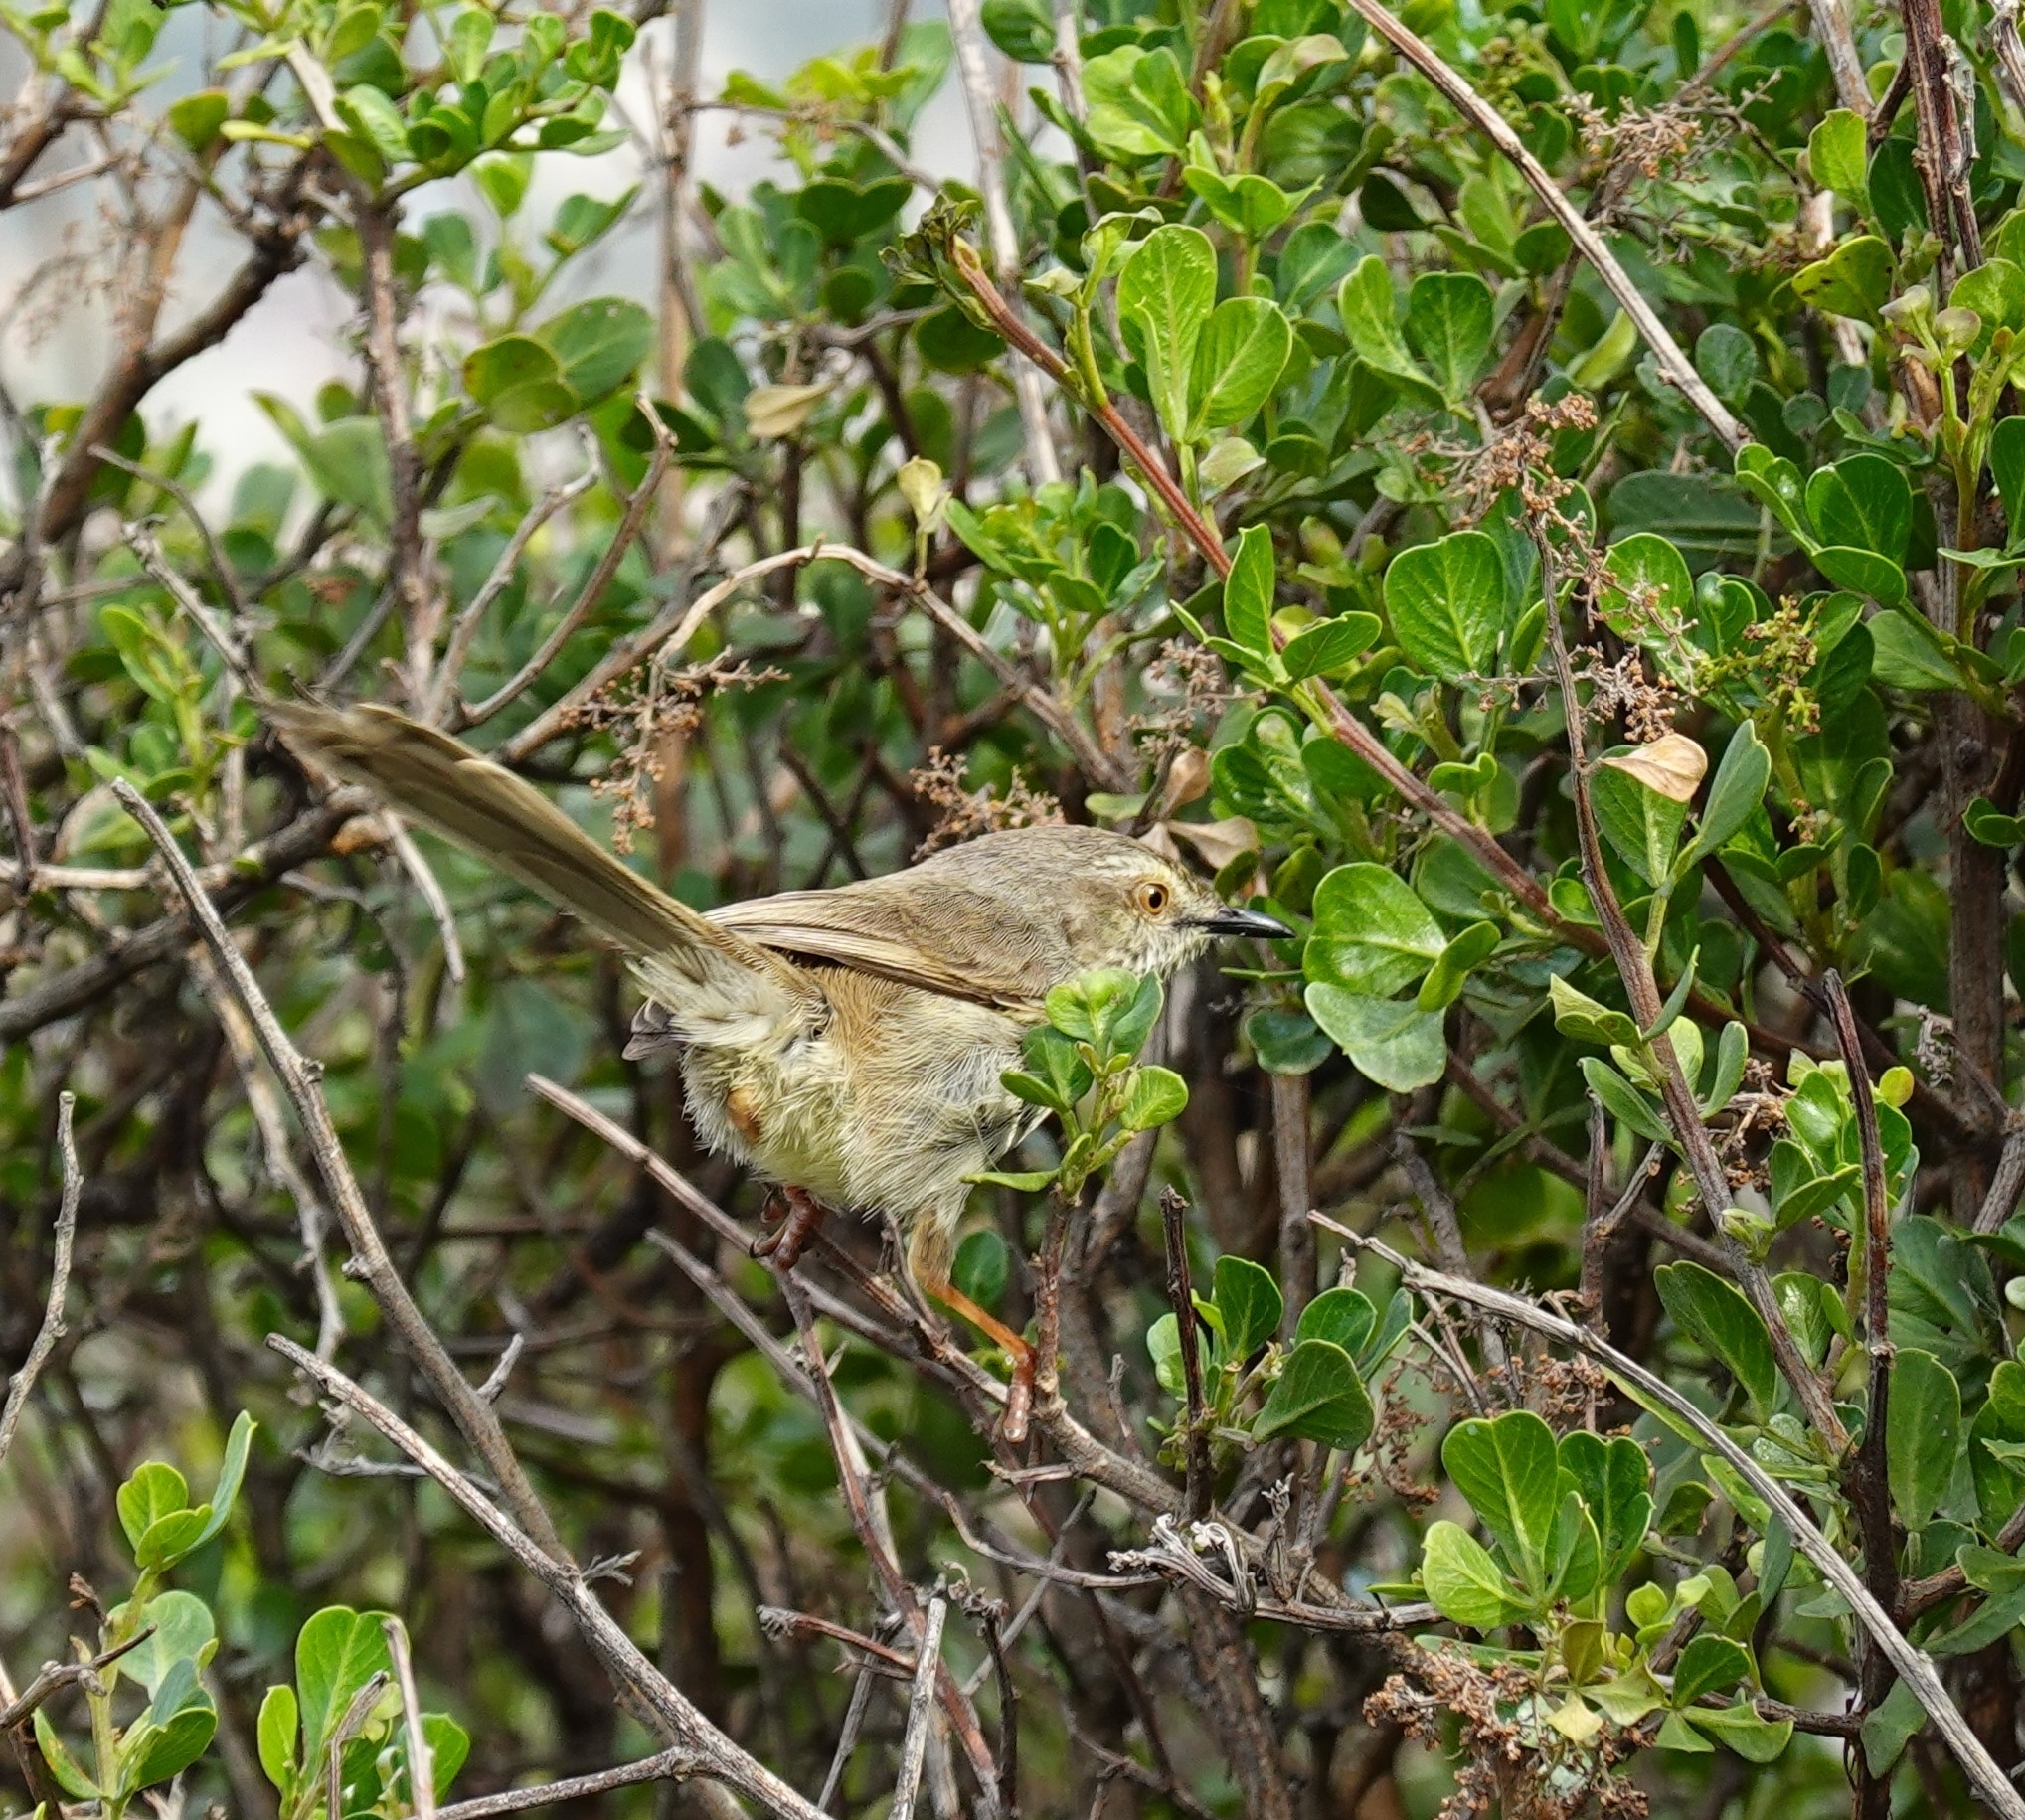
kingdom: Animalia
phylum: Chordata
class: Aves
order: Passeriformes
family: Cisticolidae
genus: Prinia
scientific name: Prinia maculosa
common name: Karoo prinia
